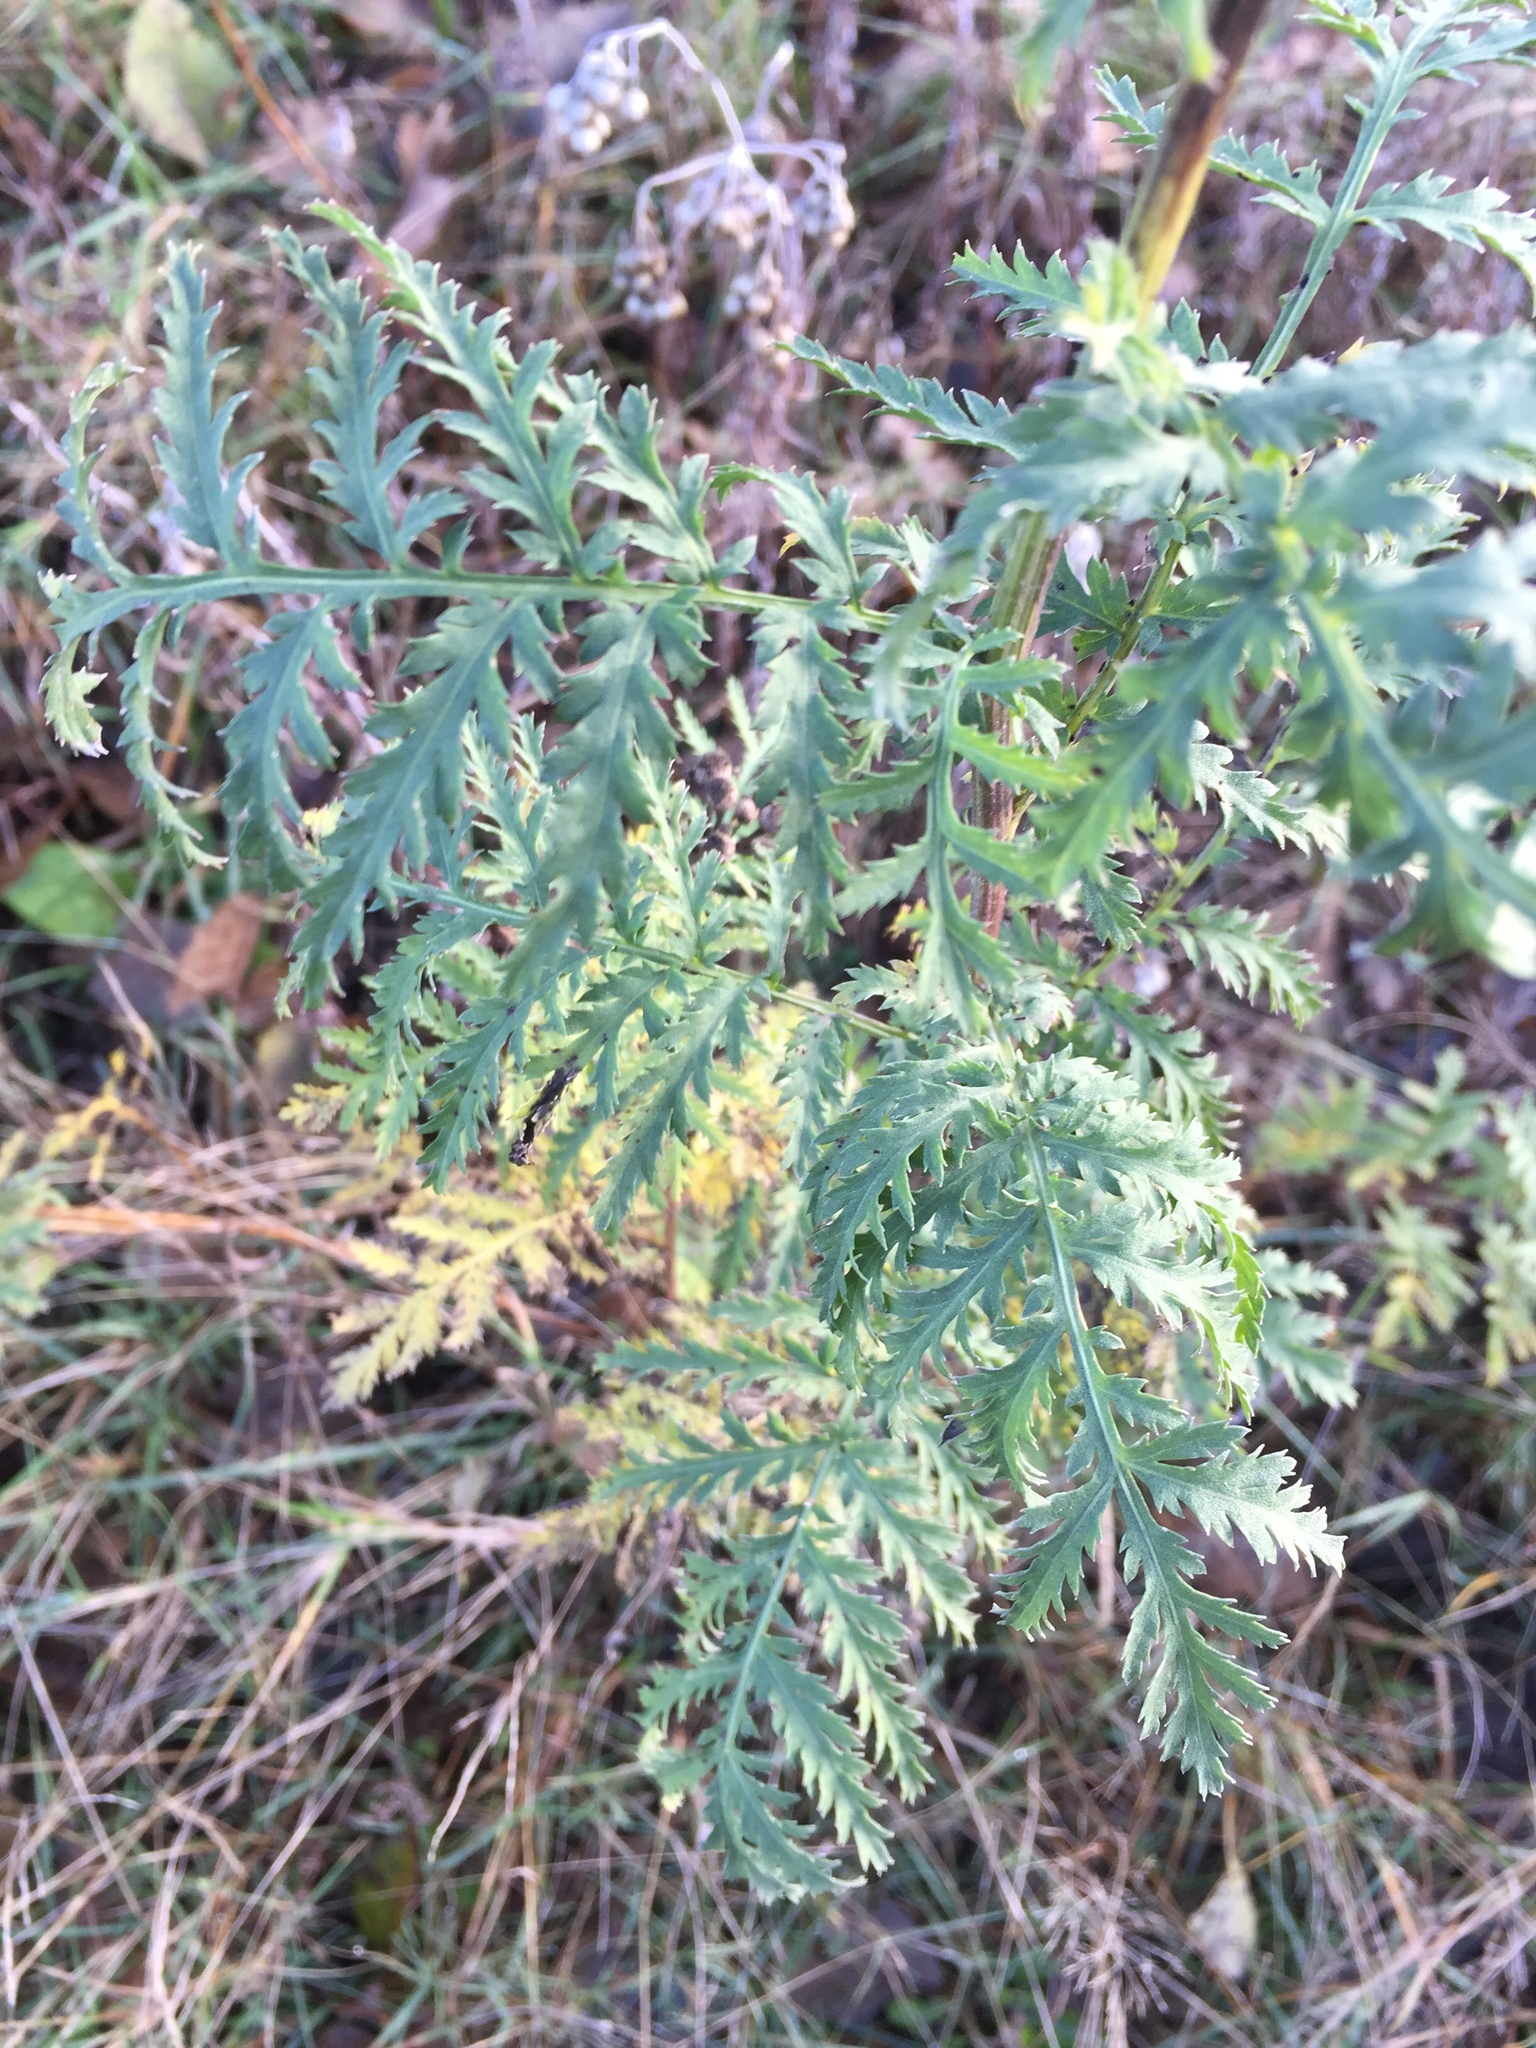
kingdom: Plantae
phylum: Tracheophyta
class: Magnoliopsida
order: Asterales
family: Asteraceae
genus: Tanacetum
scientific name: Tanacetum vulgare
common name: Common tansy
